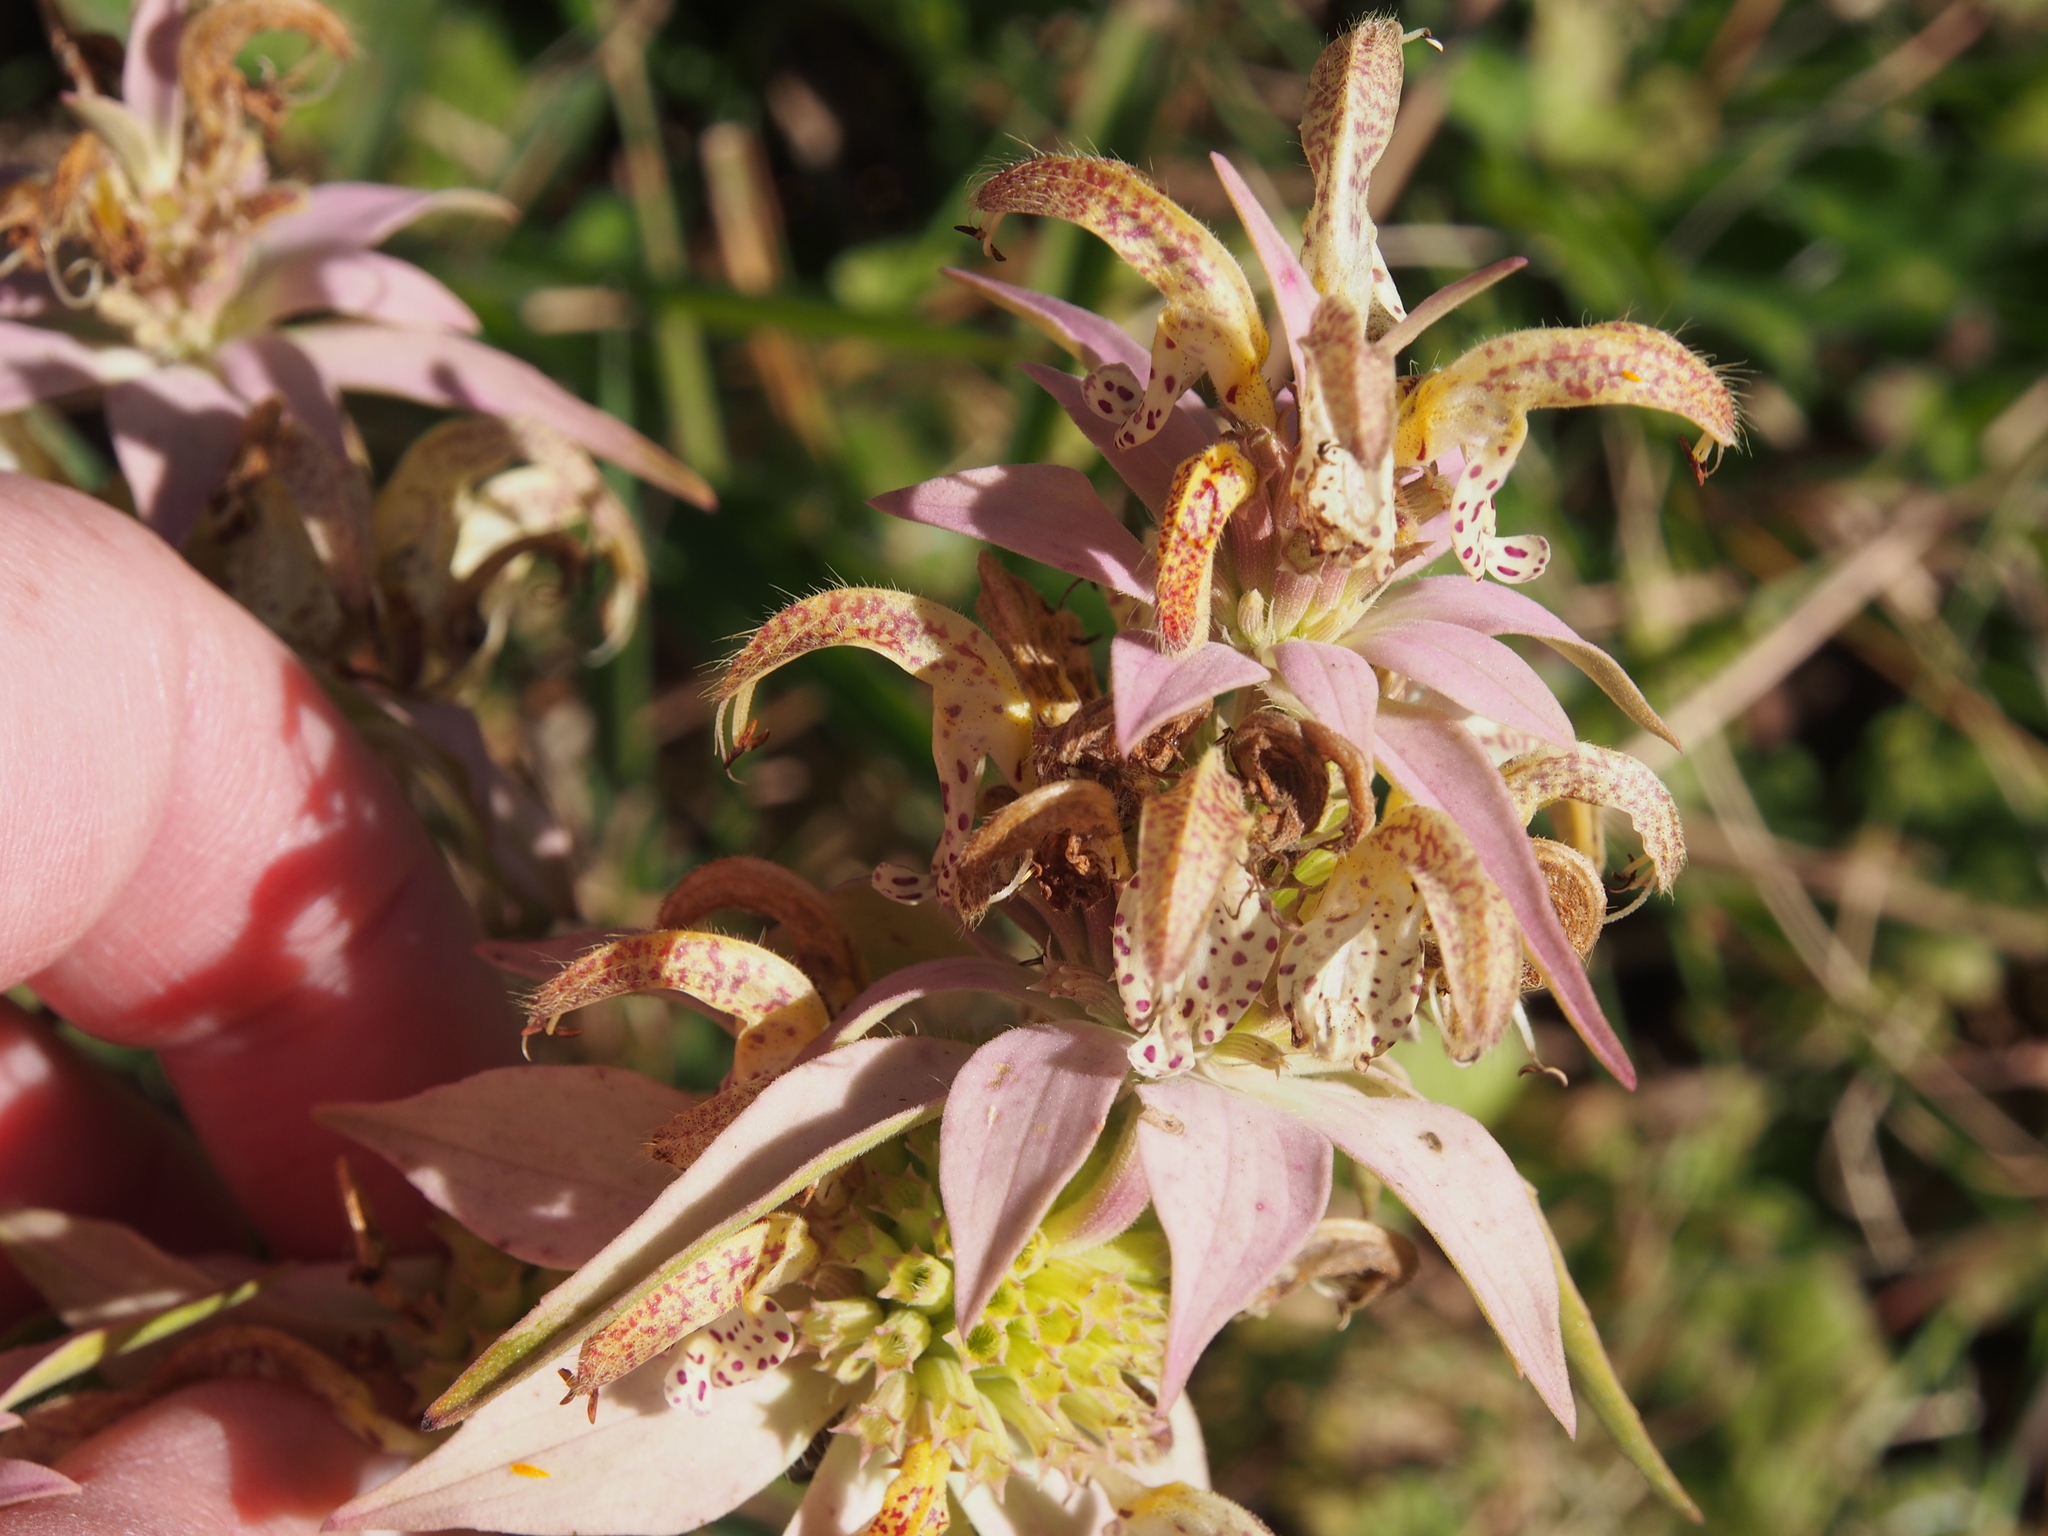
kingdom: Plantae
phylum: Tracheophyta
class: Magnoliopsida
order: Lamiales
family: Lamiaceae
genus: Monarda
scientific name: Monarda punctata
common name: Dotted monarda
